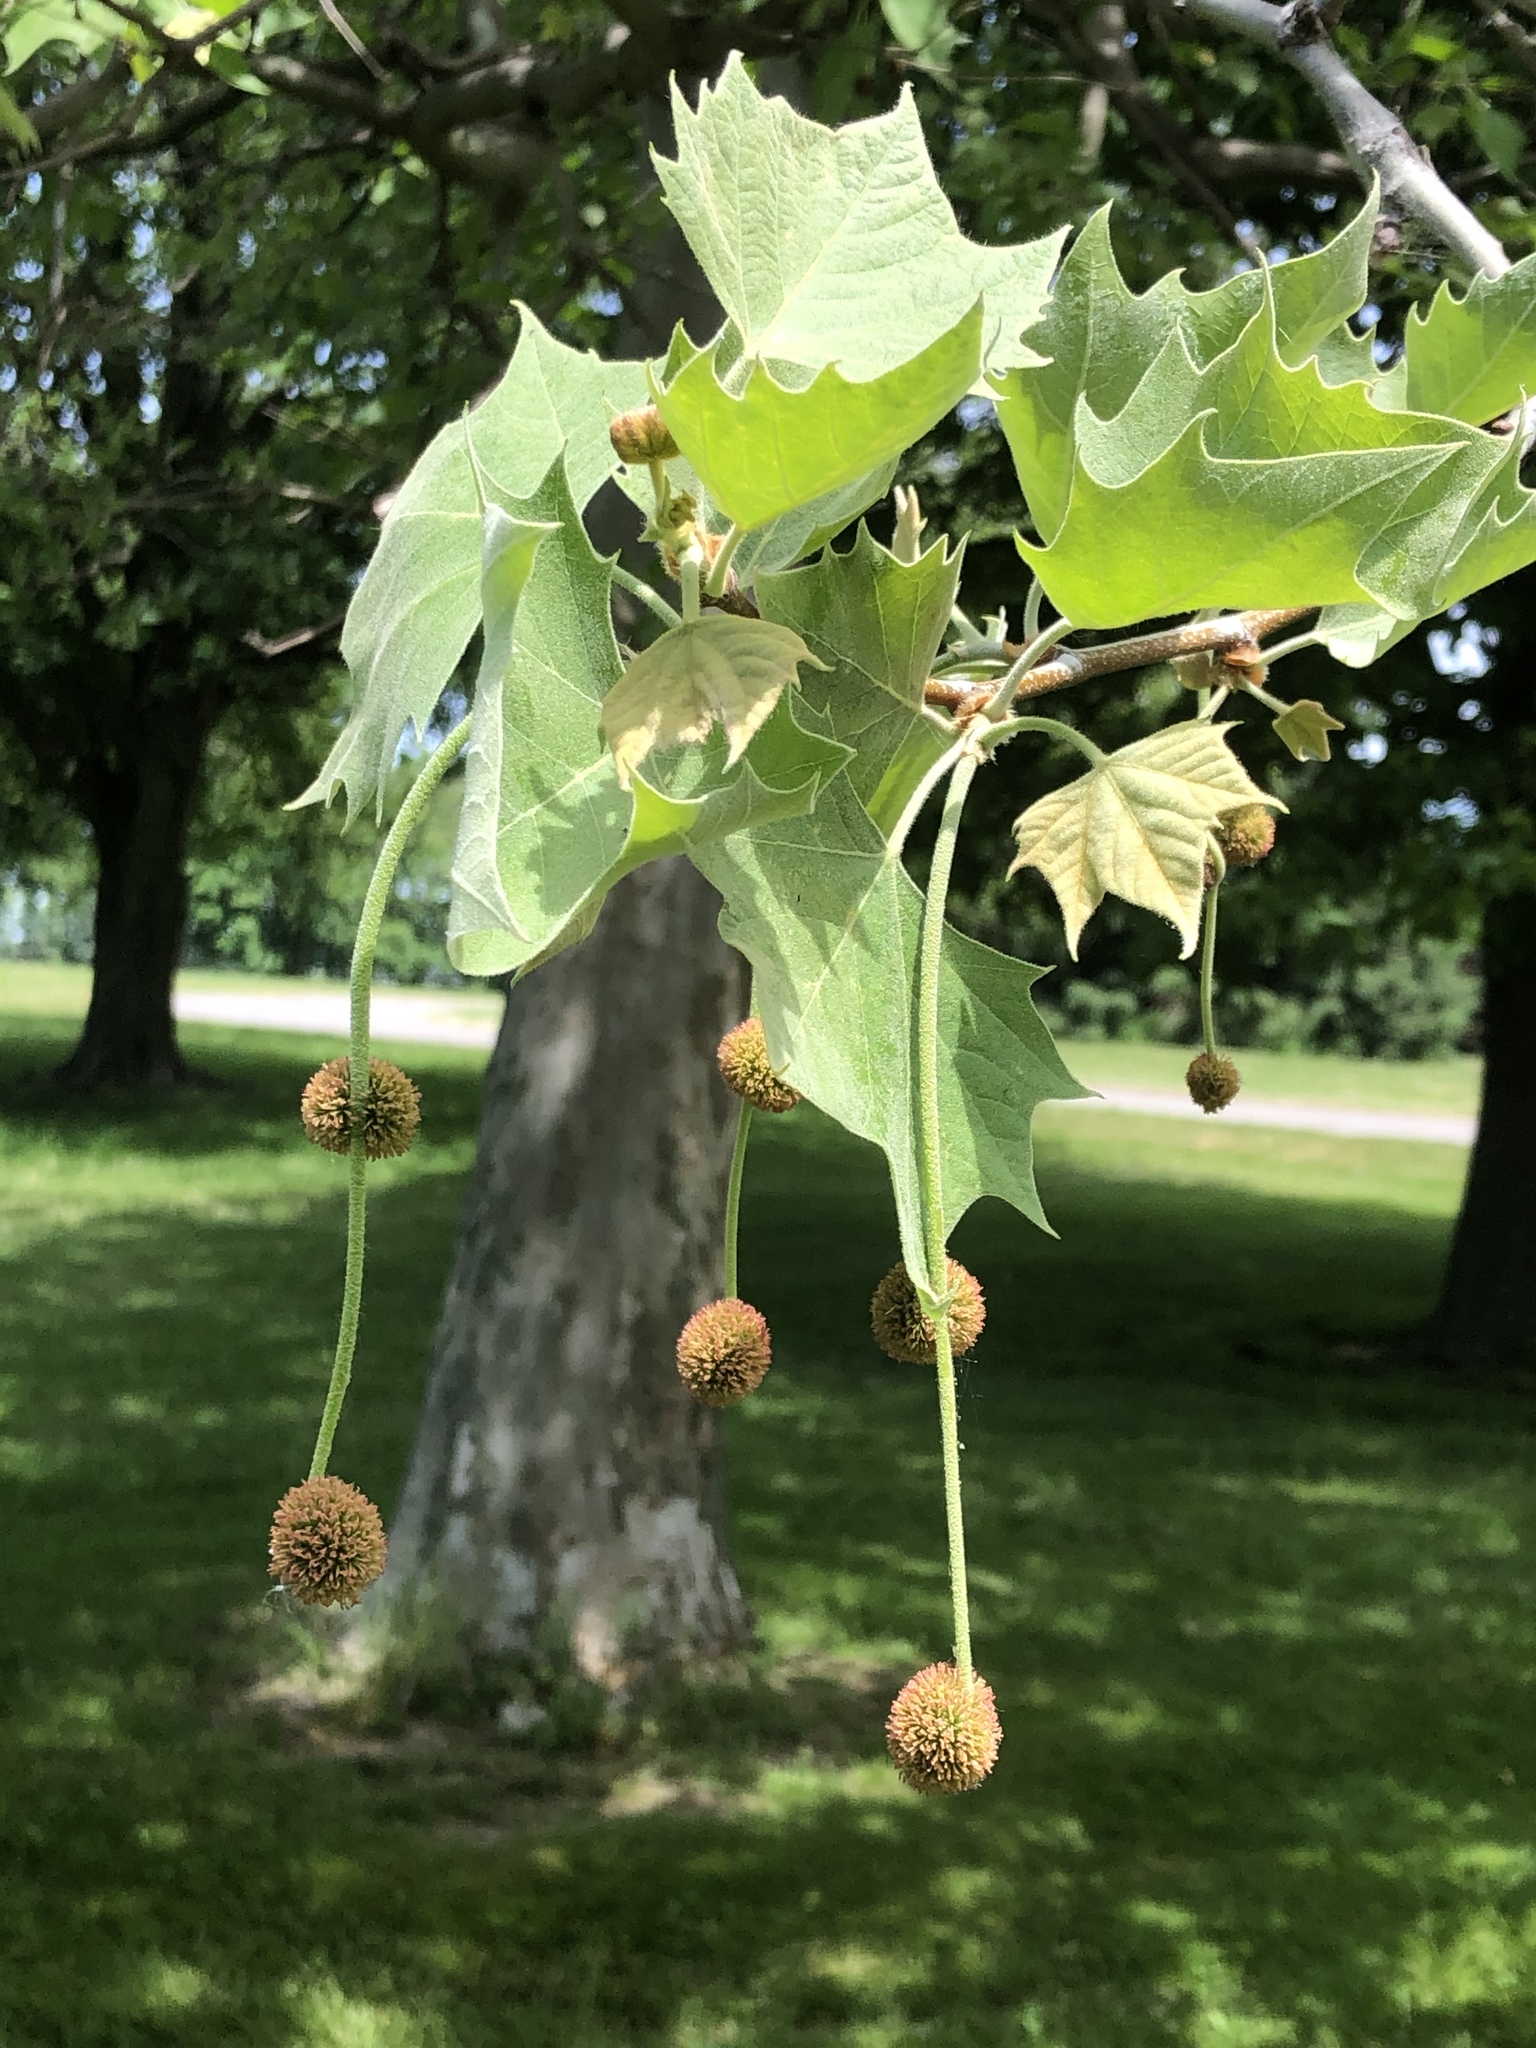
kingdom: Plantae
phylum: Tracheophyta
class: Magnoliopsida
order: Proteales
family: Platanaceae
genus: Platanus
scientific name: Platanus occidentalis
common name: American sycamore
